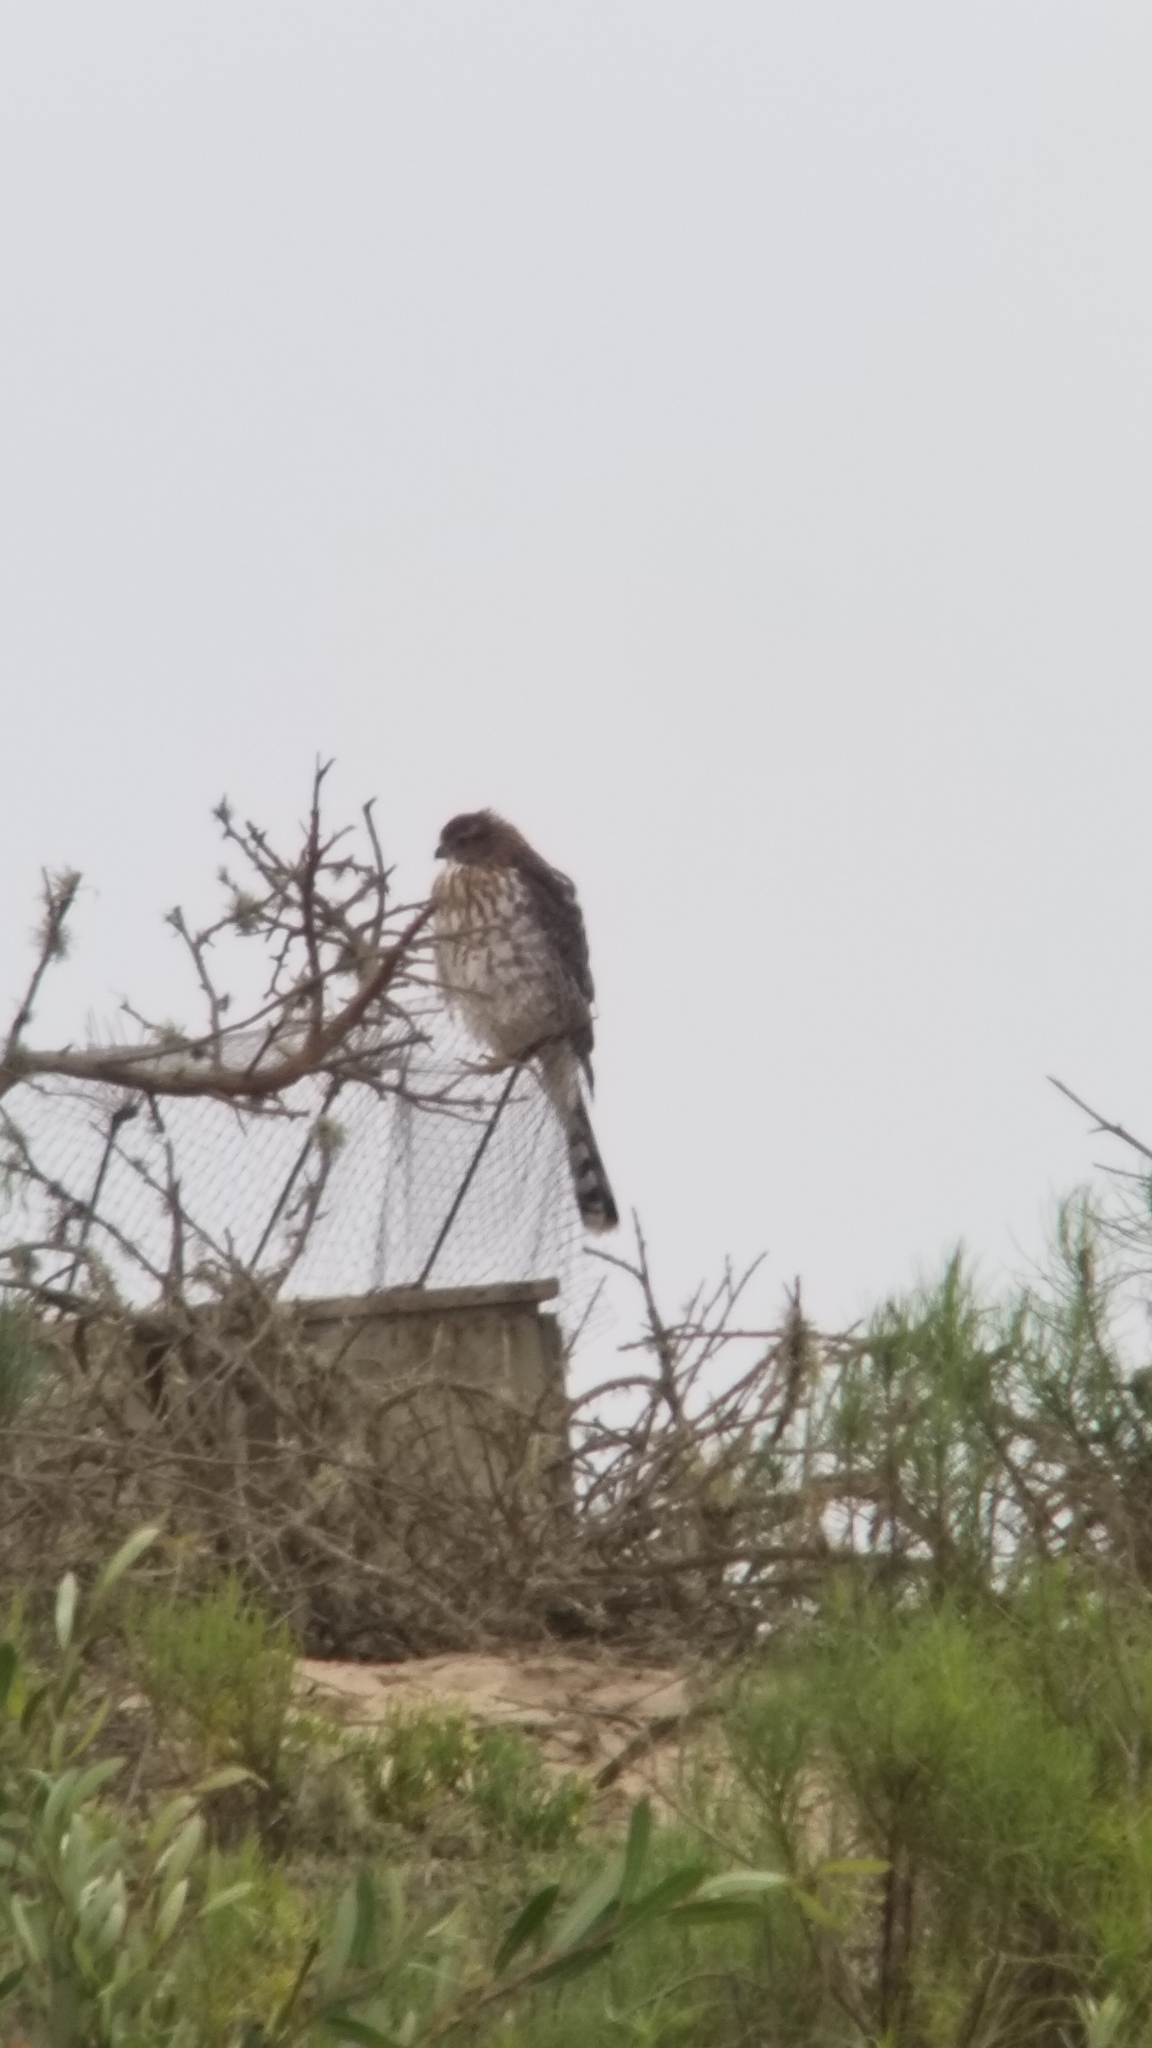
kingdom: Animalia
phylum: Chordata
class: Aves
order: Accipitriformes
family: Accipitridae
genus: Accipiter
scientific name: Accipiter cooperii
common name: Cooper's hawk
